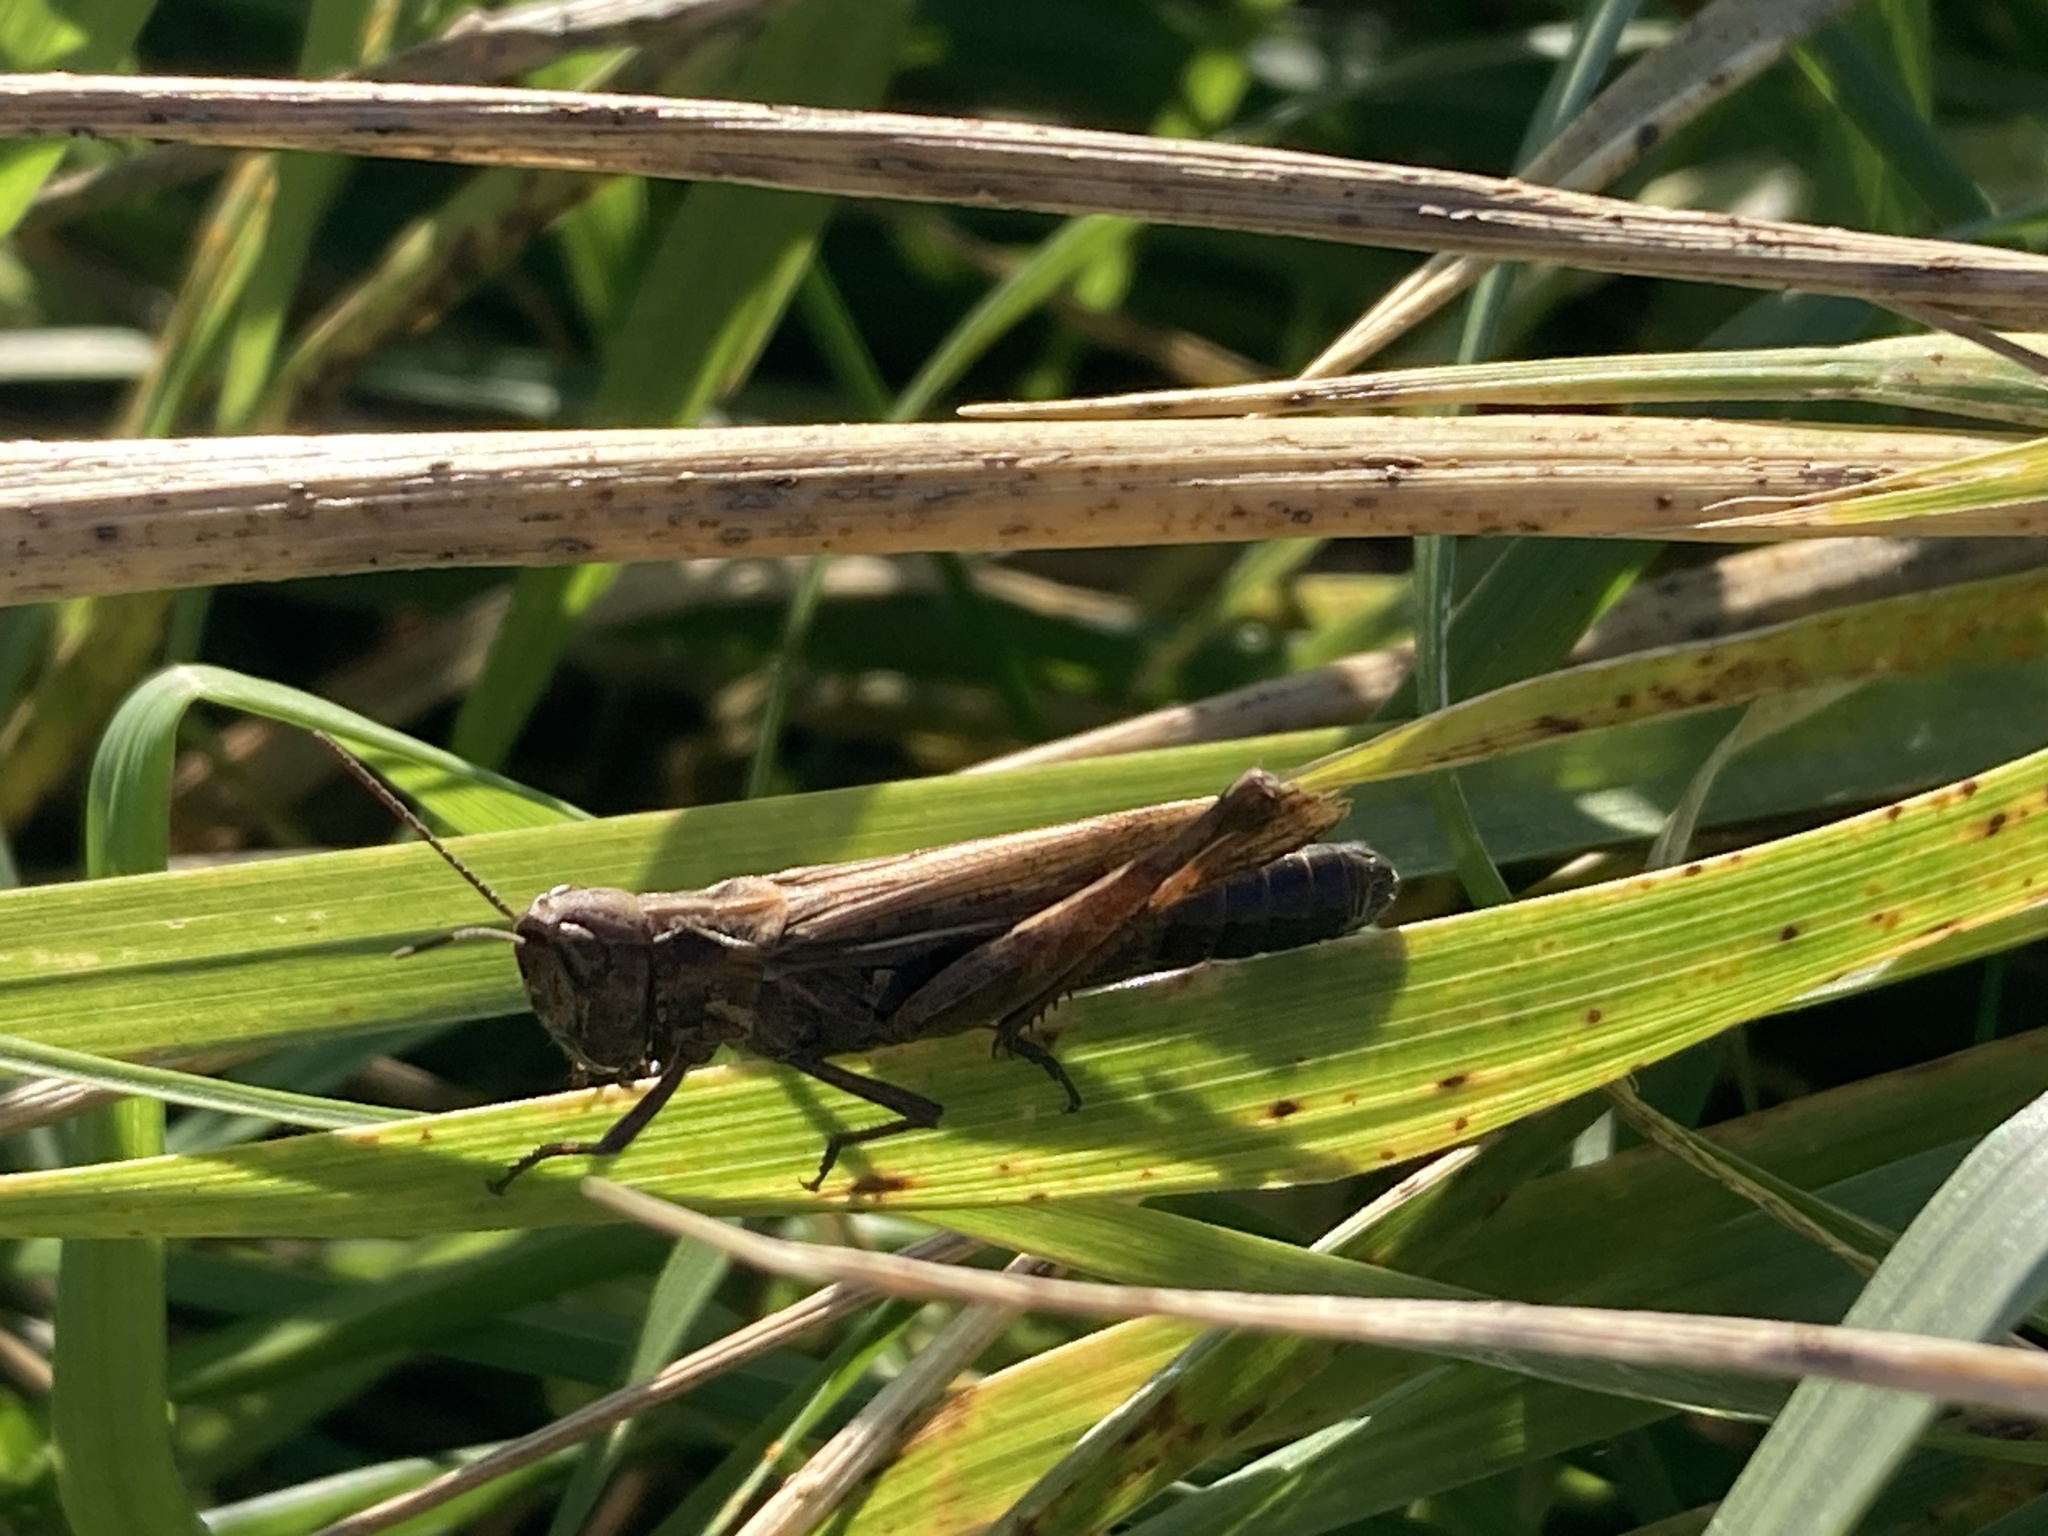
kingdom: Animalia
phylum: Arthropoda
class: Insecta
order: Orthoptera
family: Acrididae
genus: Glyptobothrus
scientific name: Glyptobothrus
